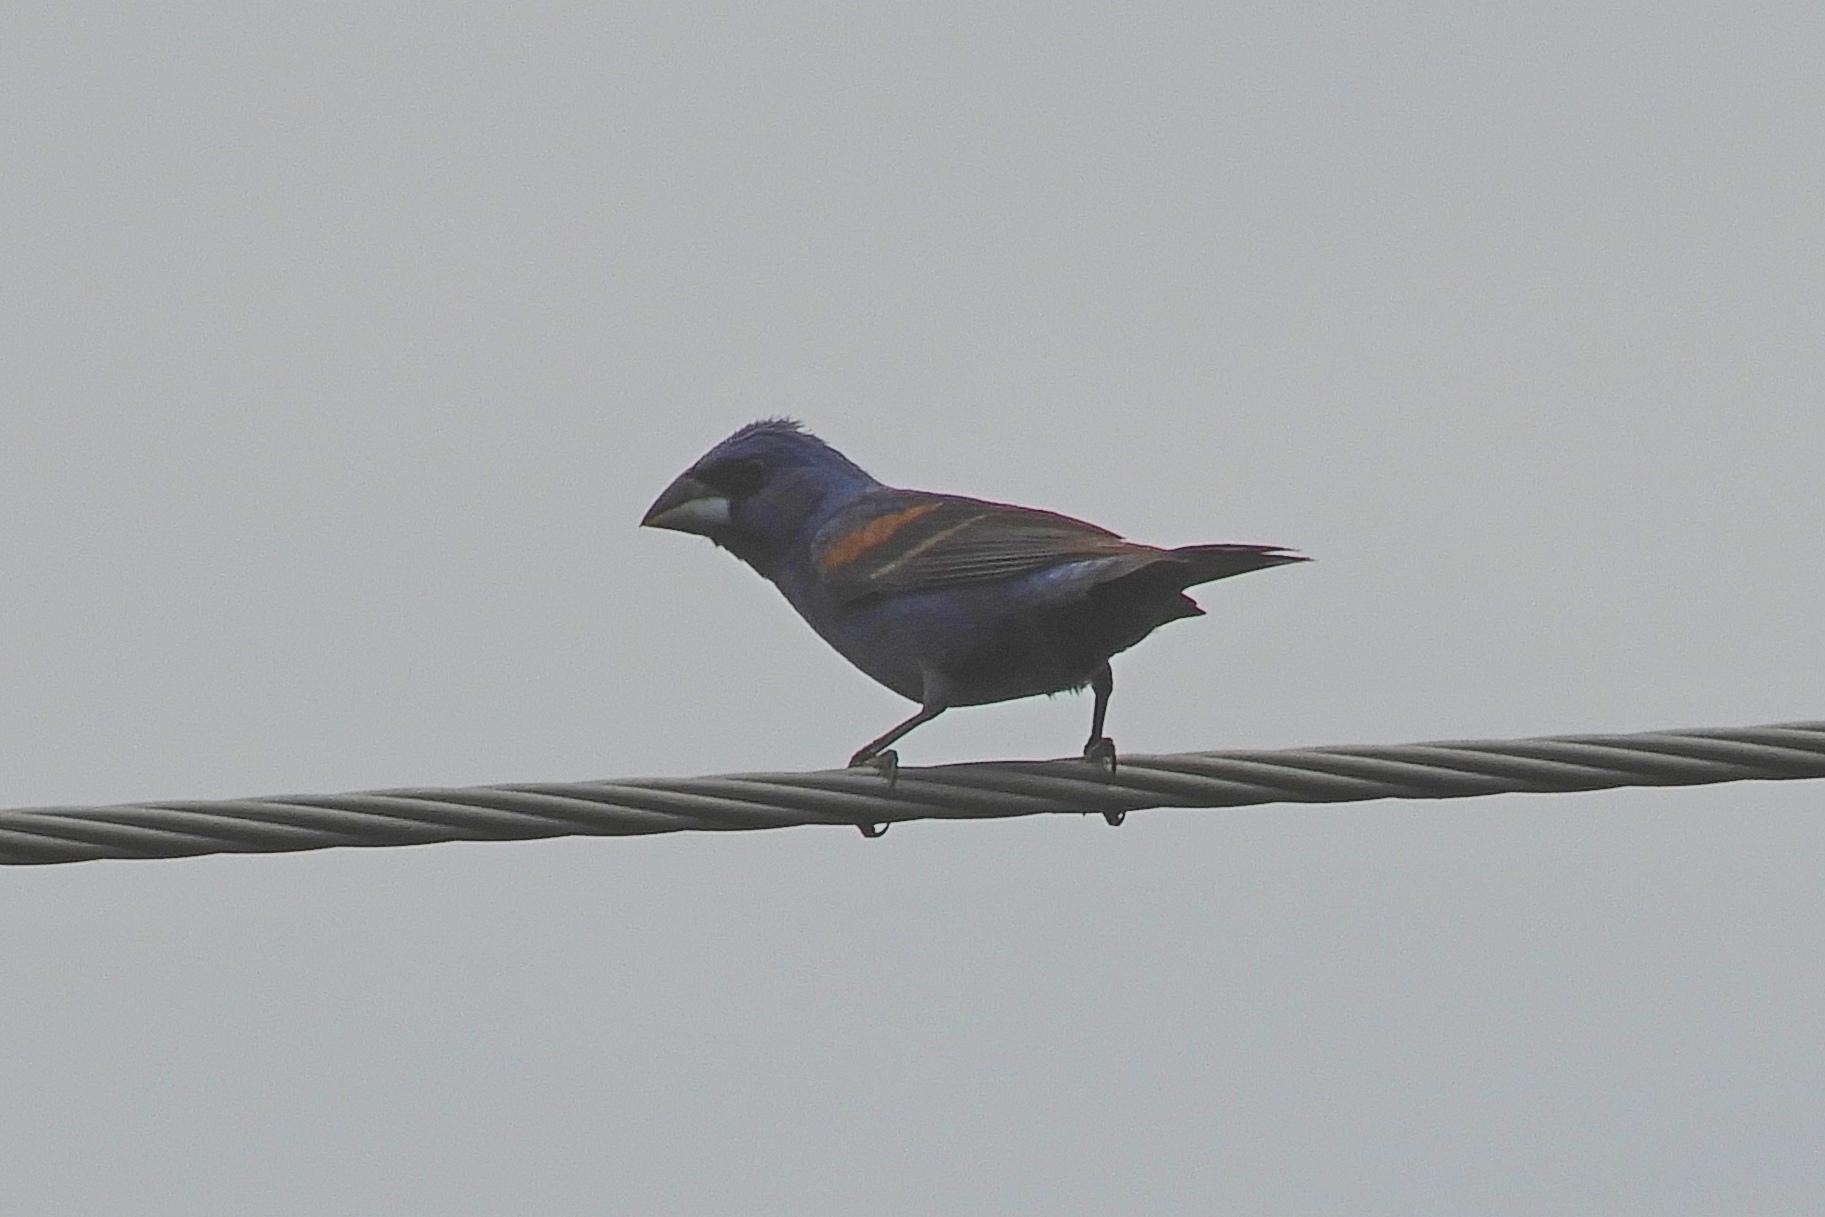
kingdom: Animalia
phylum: Chordata
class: Aves
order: Passeriformes
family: Cardinalidae
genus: Passerina
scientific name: Passerina caerulea
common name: Blue grosbeak
